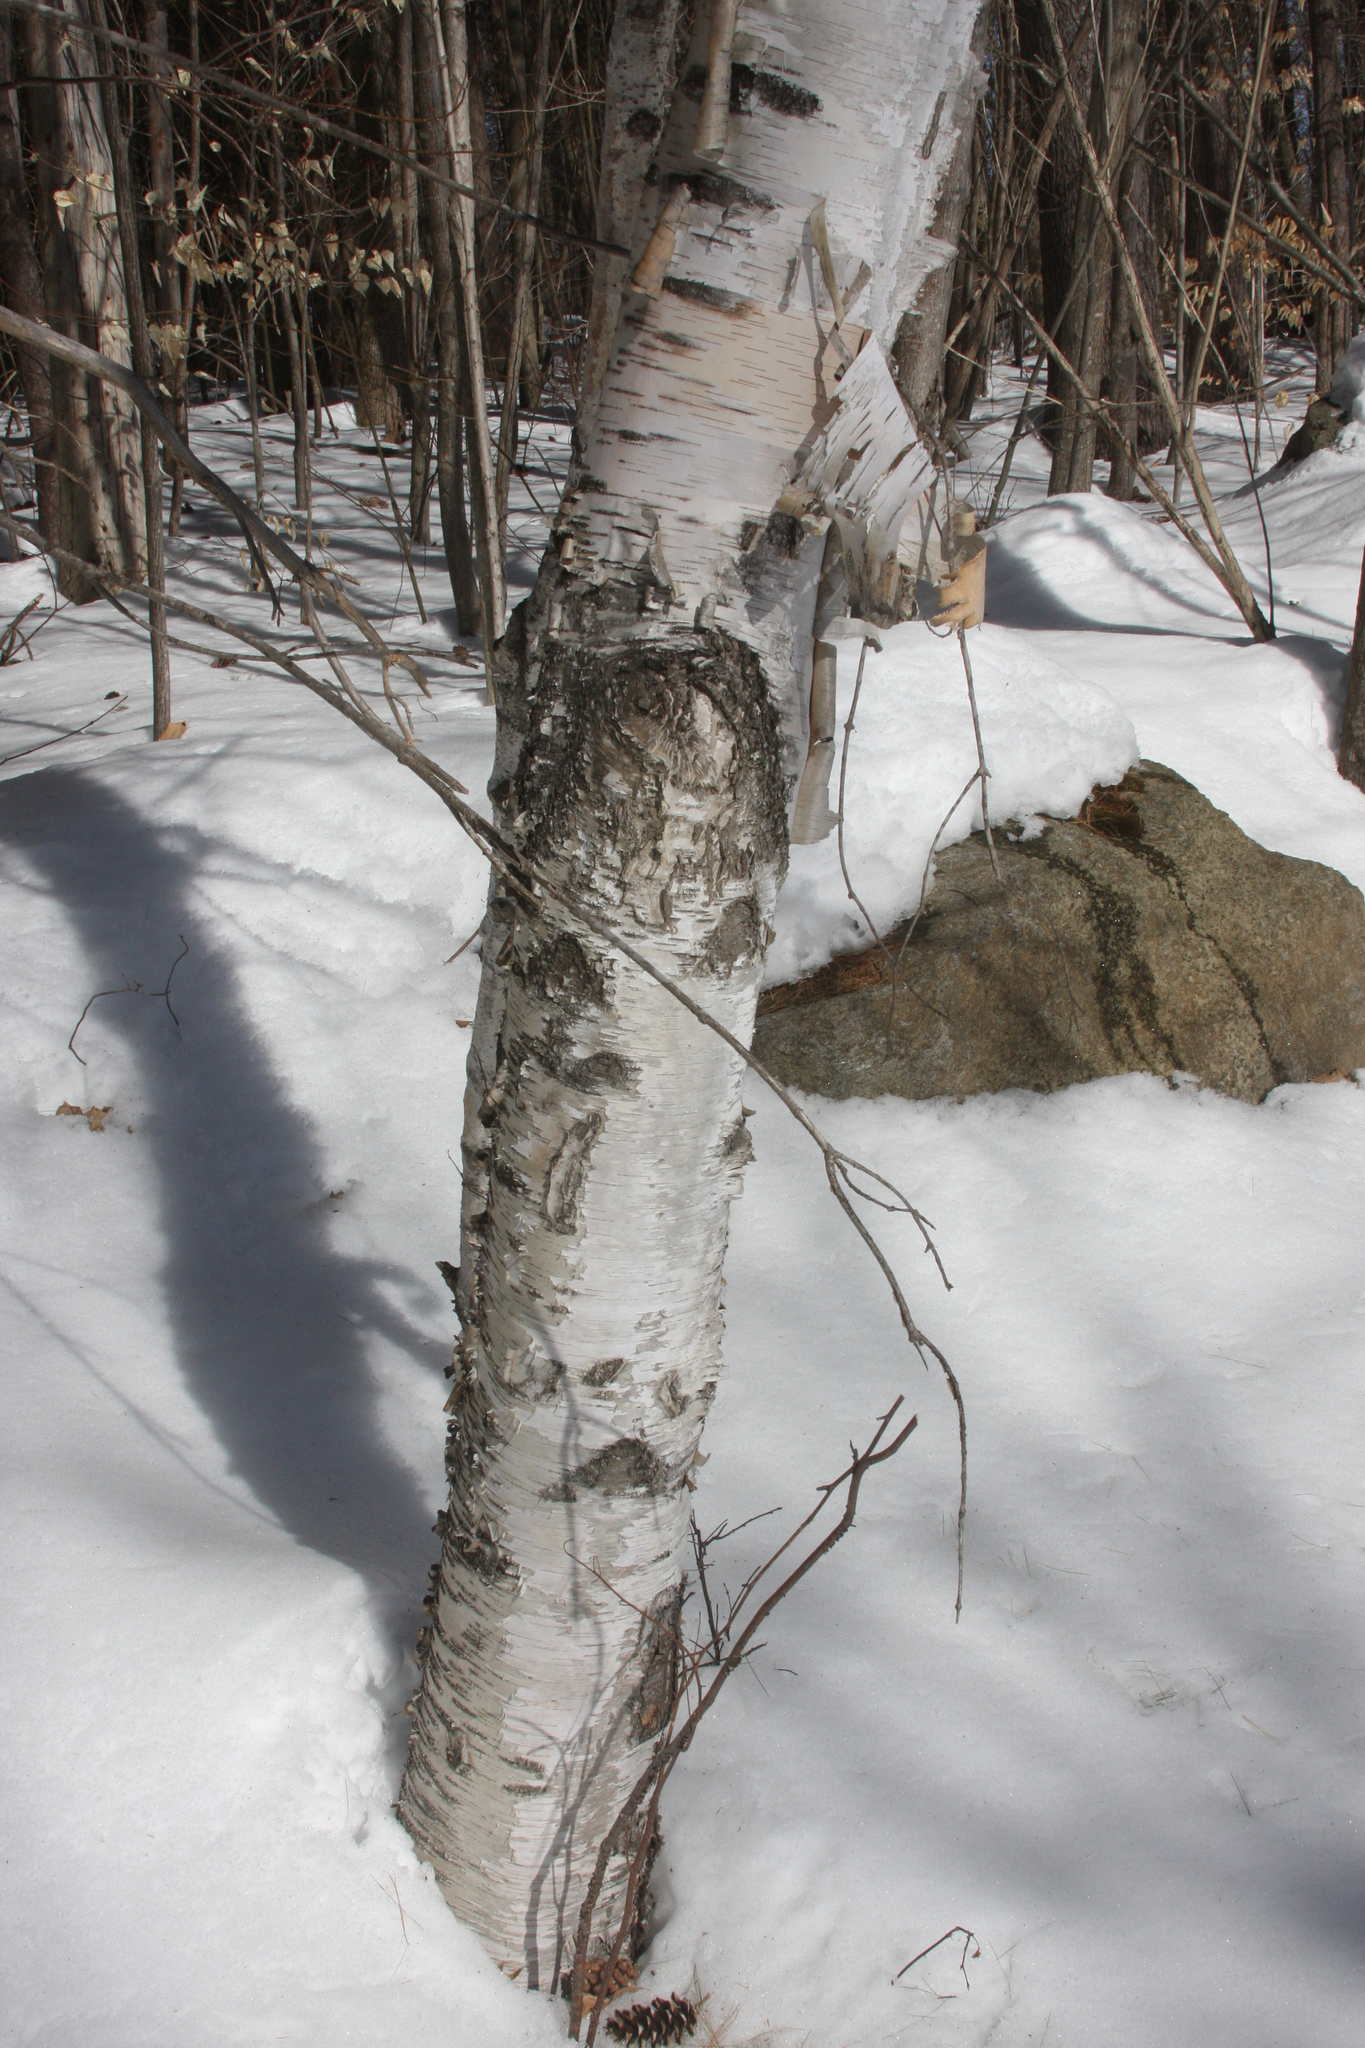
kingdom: Plantae
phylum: Tracheophyta
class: Magnoliopsida
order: Fagales
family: Betulaceae
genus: Betula
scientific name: Betula papyrifera
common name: Paper birch
